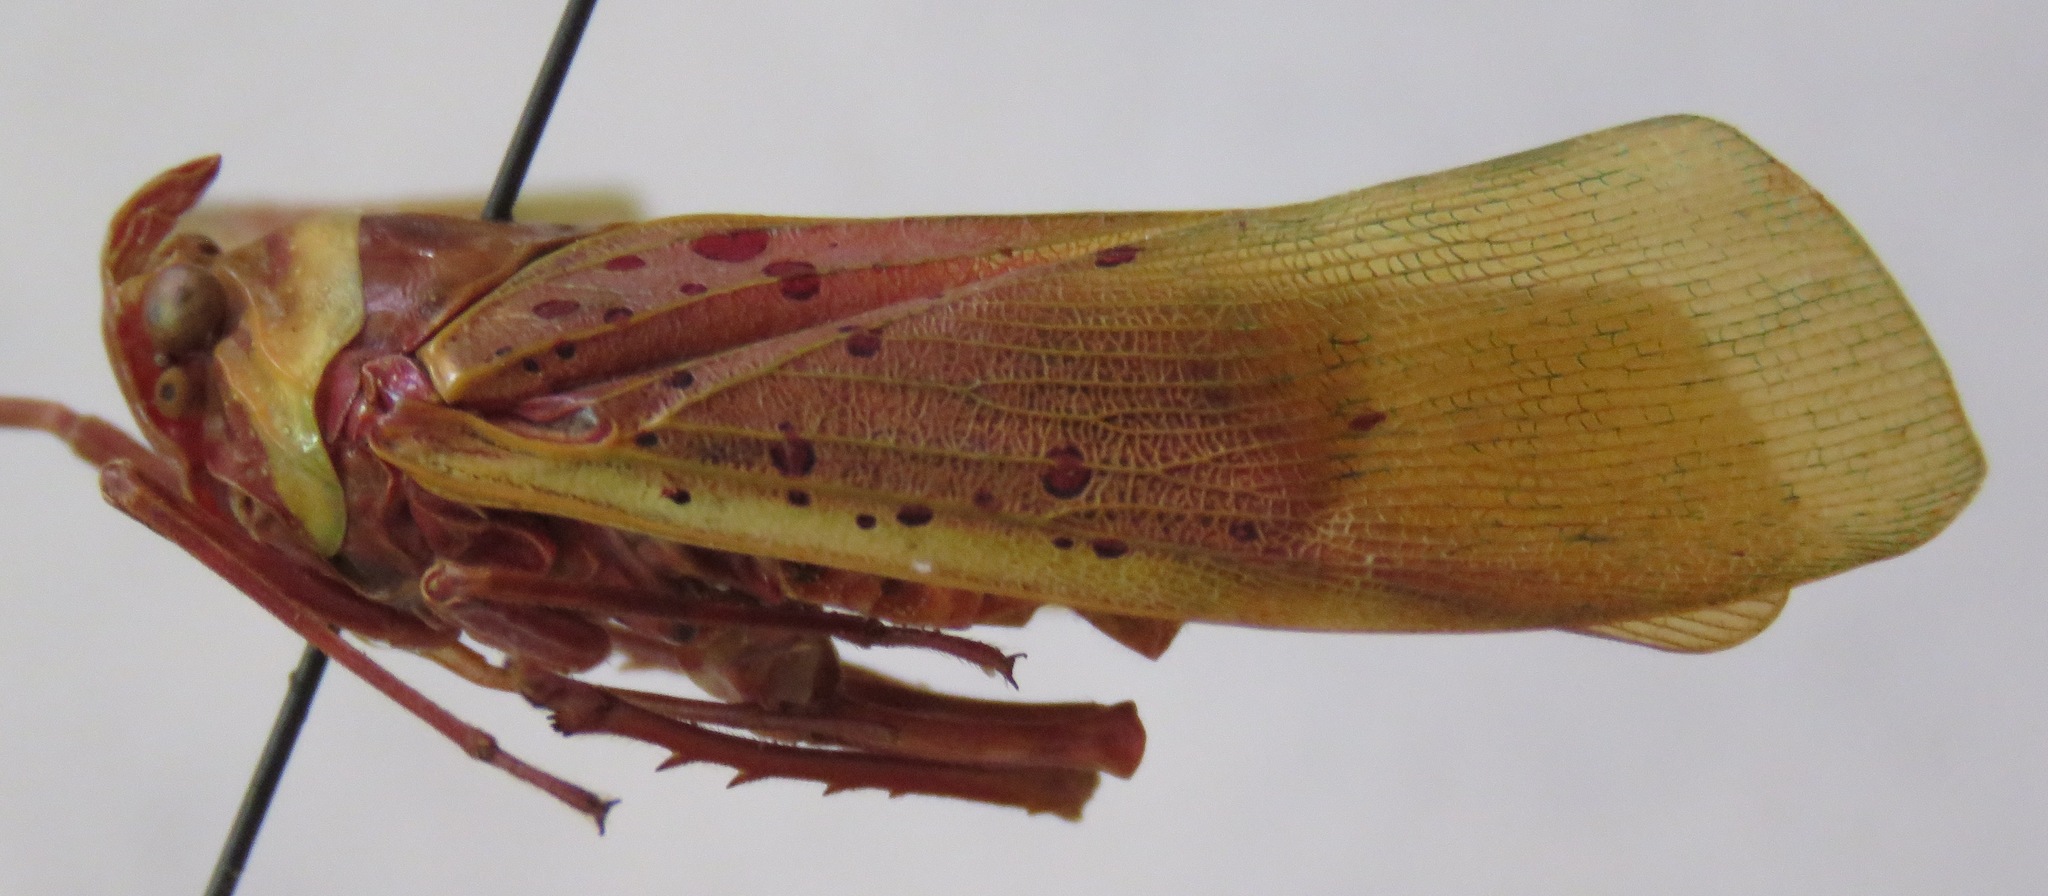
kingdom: Animalia
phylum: Arthropoda
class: Insecta
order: Hemiptera
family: Fulgoridae
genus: Copidocephala
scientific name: Copidocephala guttata
